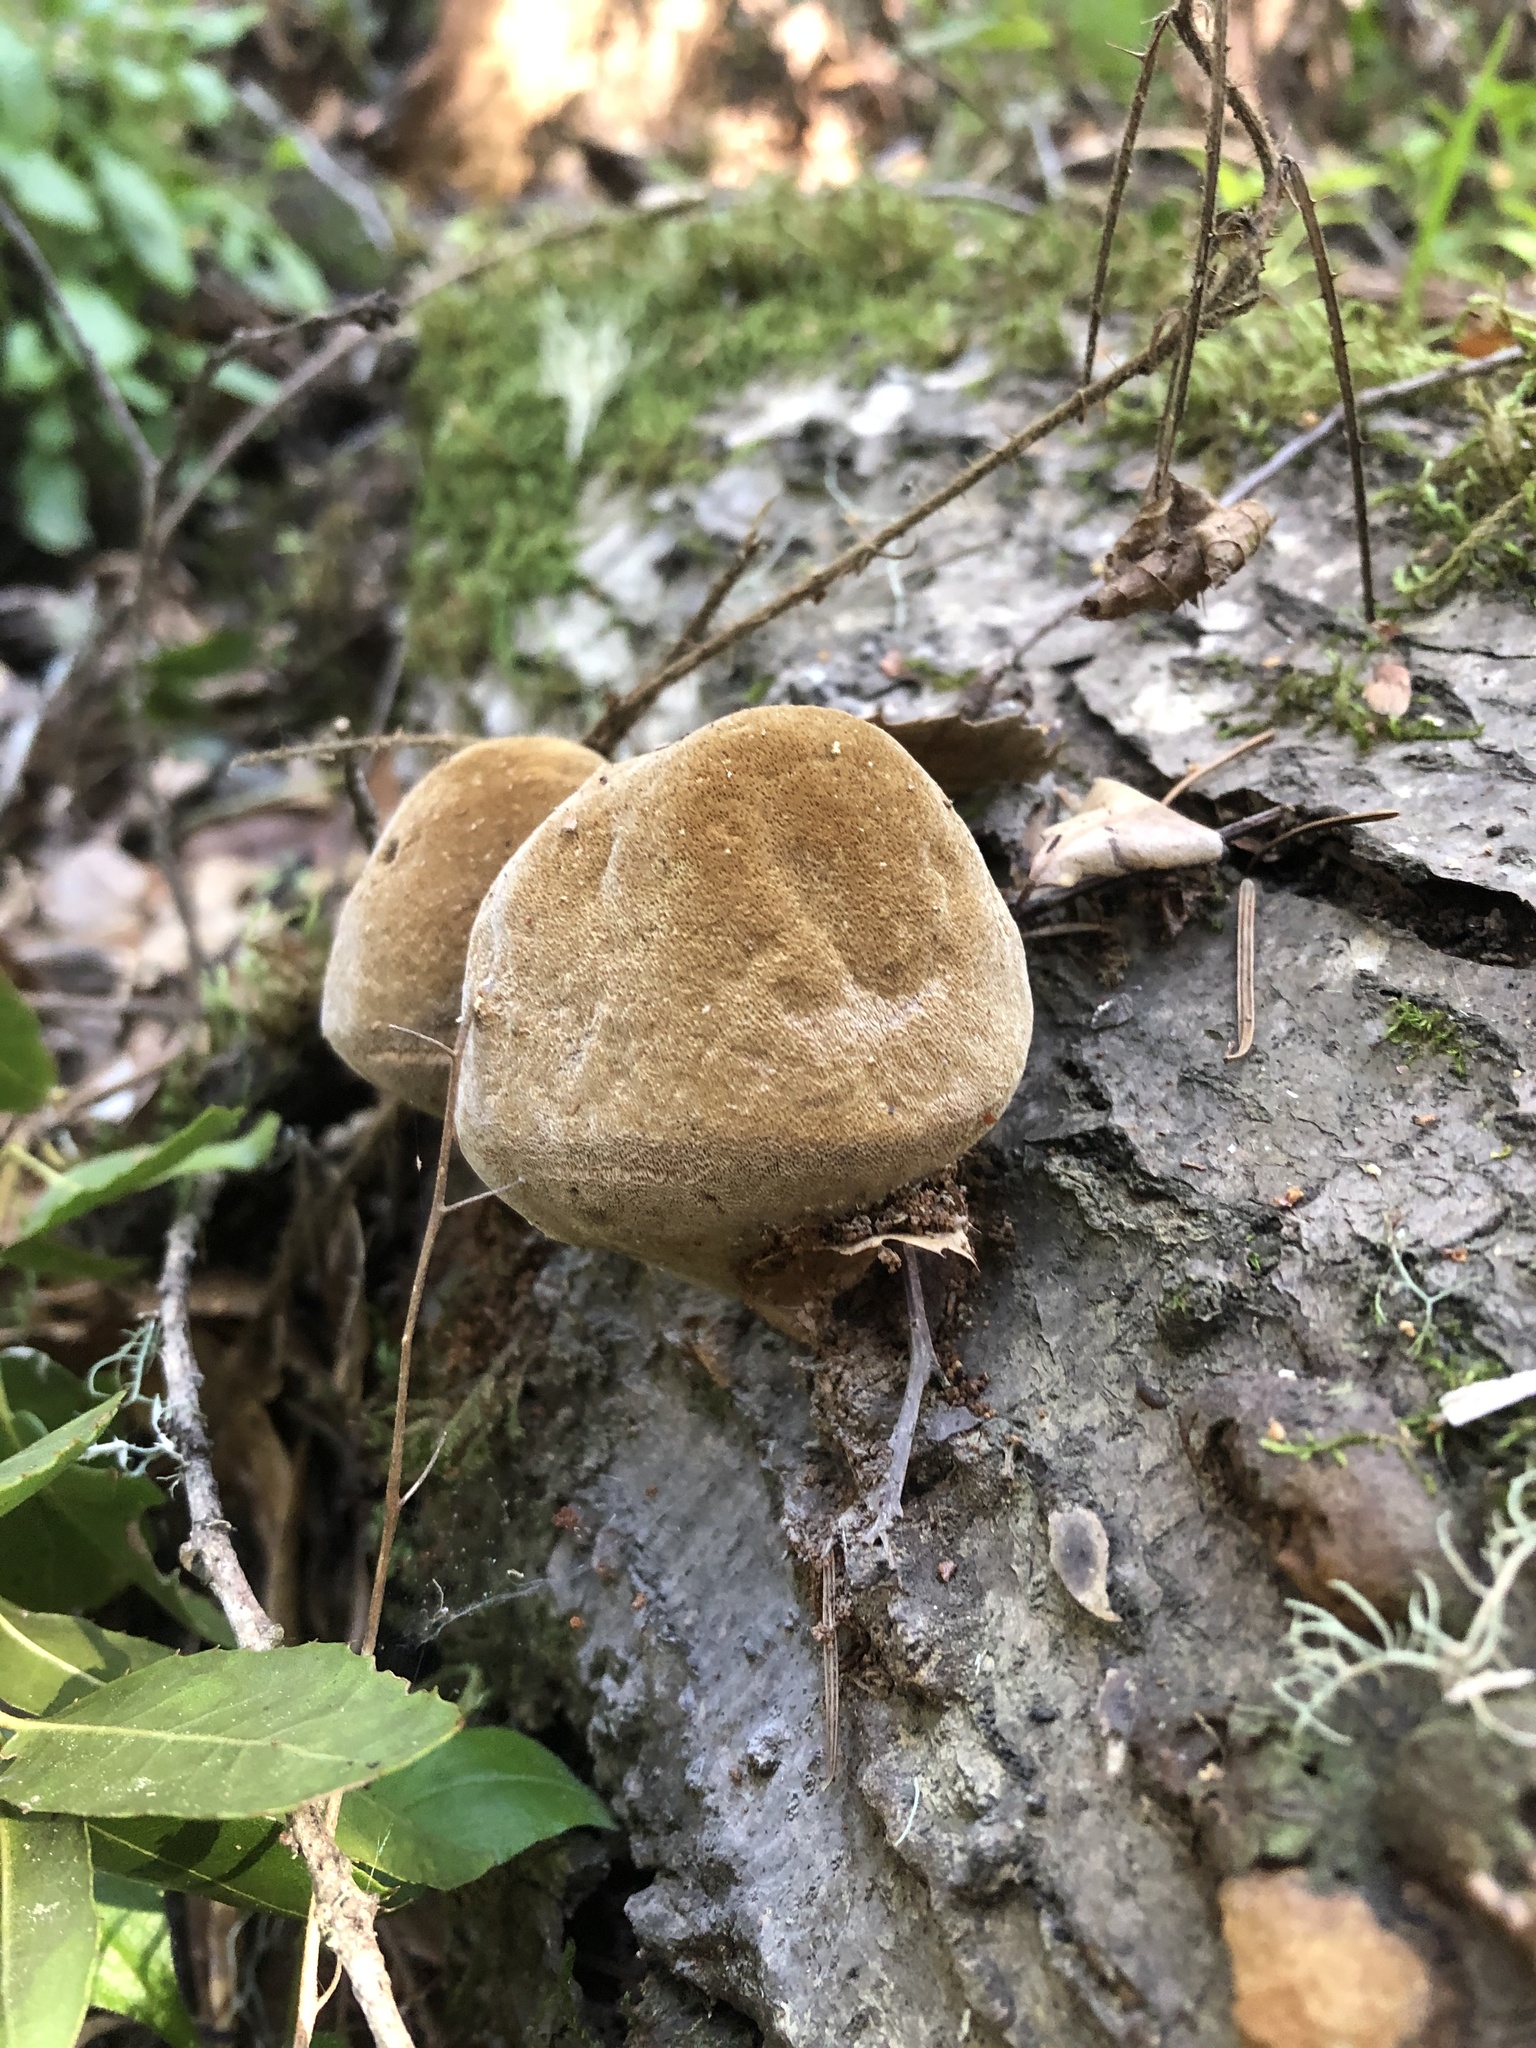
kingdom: Fungi
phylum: Basidiomycota
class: Agaricomycetes
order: Hymenochaetales
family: Hymenochaetaceae
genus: Fomitiporia
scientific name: Fomitiporia robusta
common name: Robust bracket
